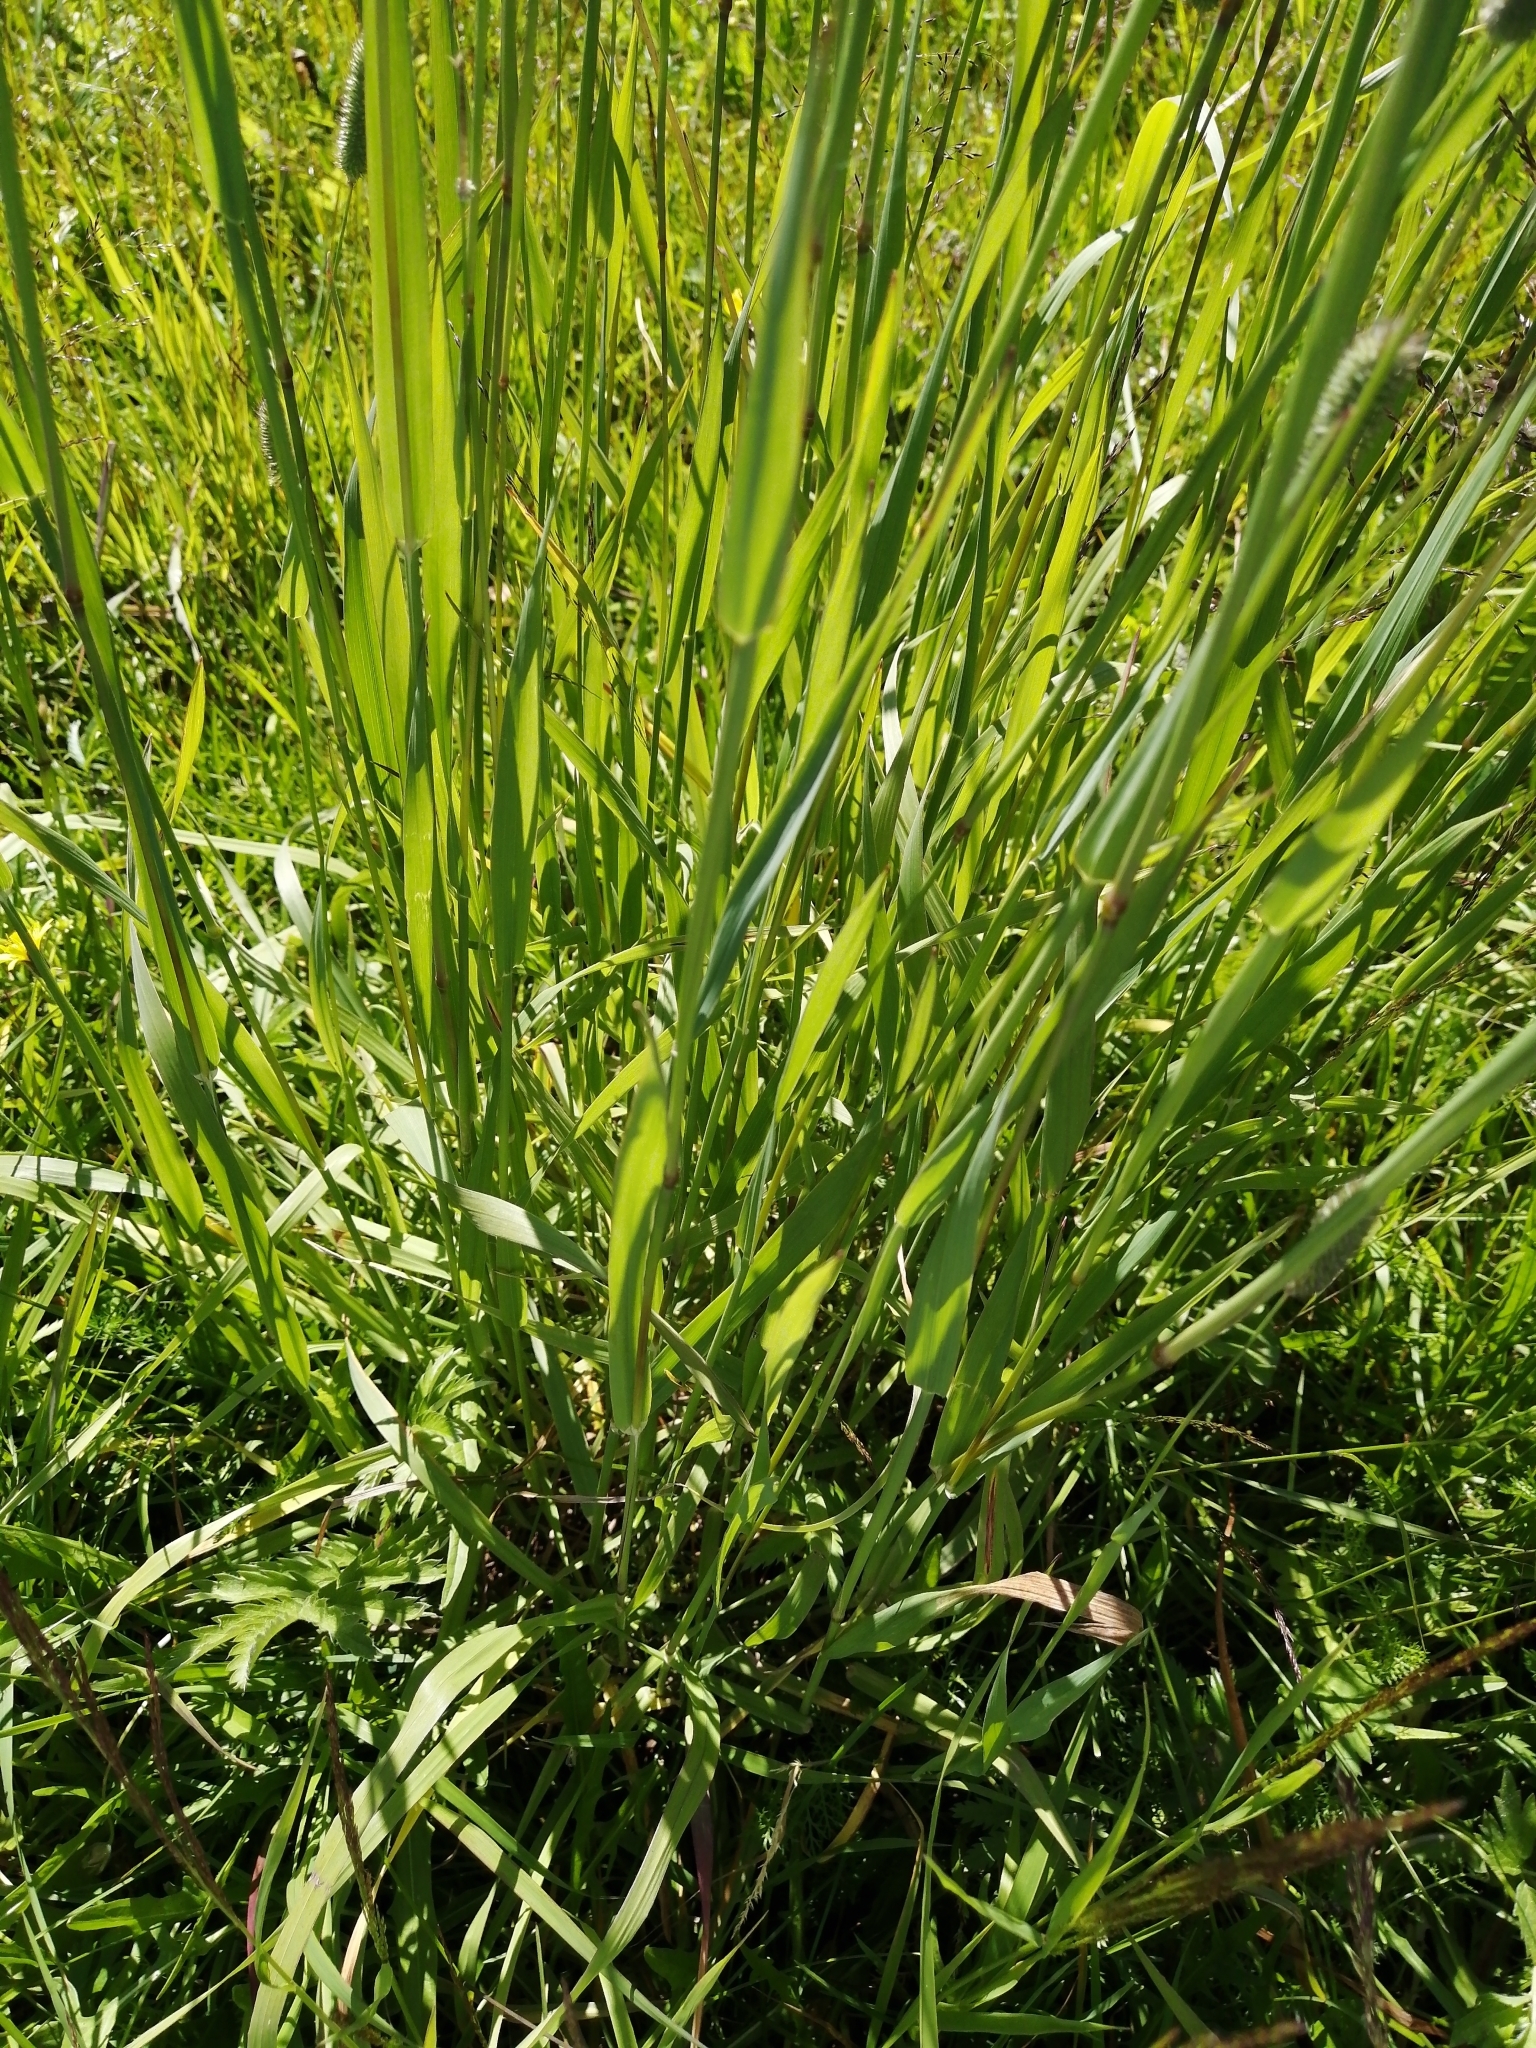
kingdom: Plantae
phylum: Tracheophyta
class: Liliopsida
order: Poales
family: Poaceae
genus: Phleum
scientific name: Phleum pratense
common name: Timothy grass
